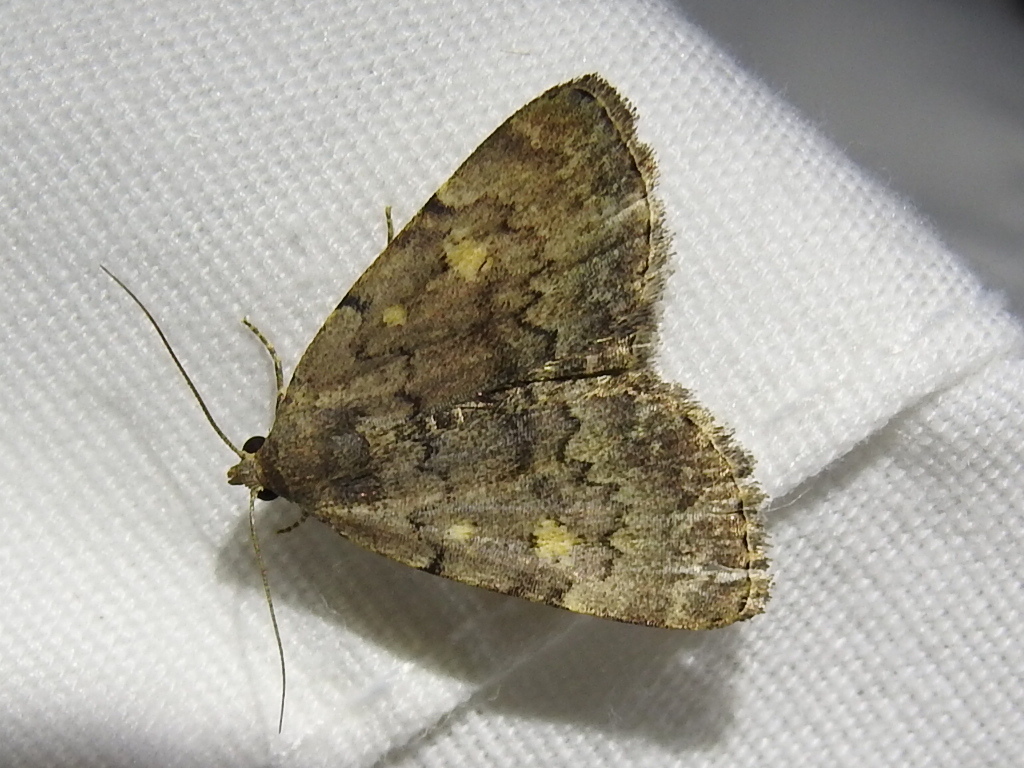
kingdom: Animalia
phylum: Arthropoda
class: Insecta
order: Lepidoptera
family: Erebidae
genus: Idia
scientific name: Idia aemula
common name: Common idia moth
